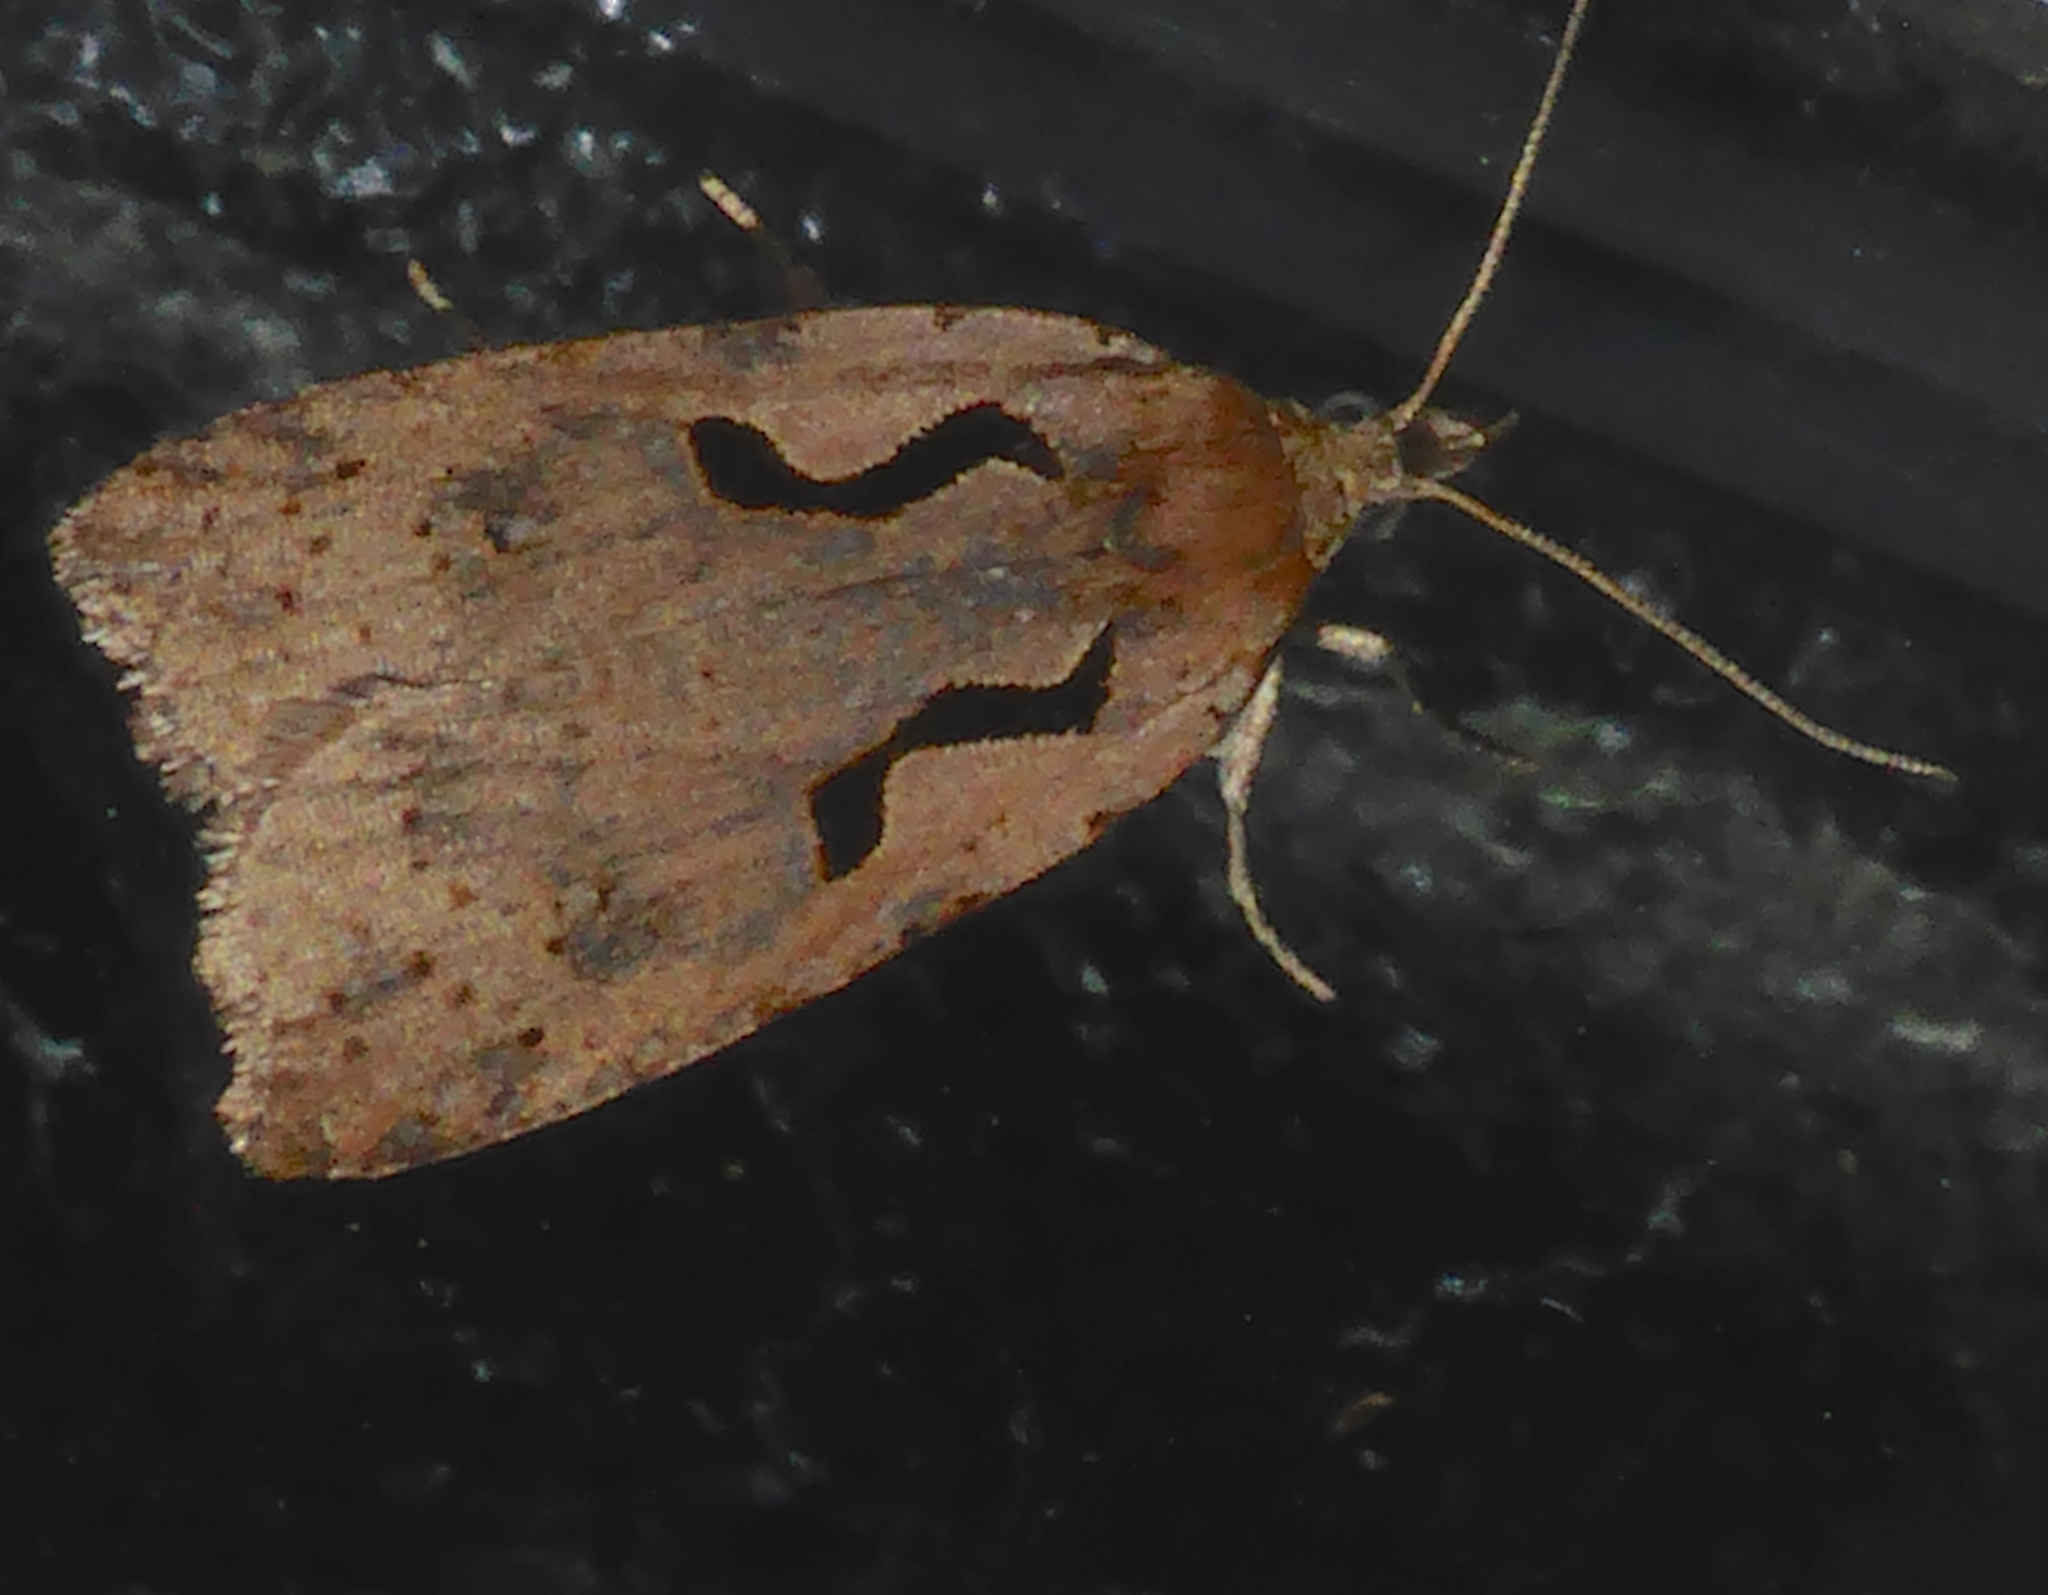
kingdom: Animalia
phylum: Arthropoda
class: Insecta
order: Lepidoptera
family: Tortricidae
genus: Cnephasia
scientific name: Cnephasia jactatana
